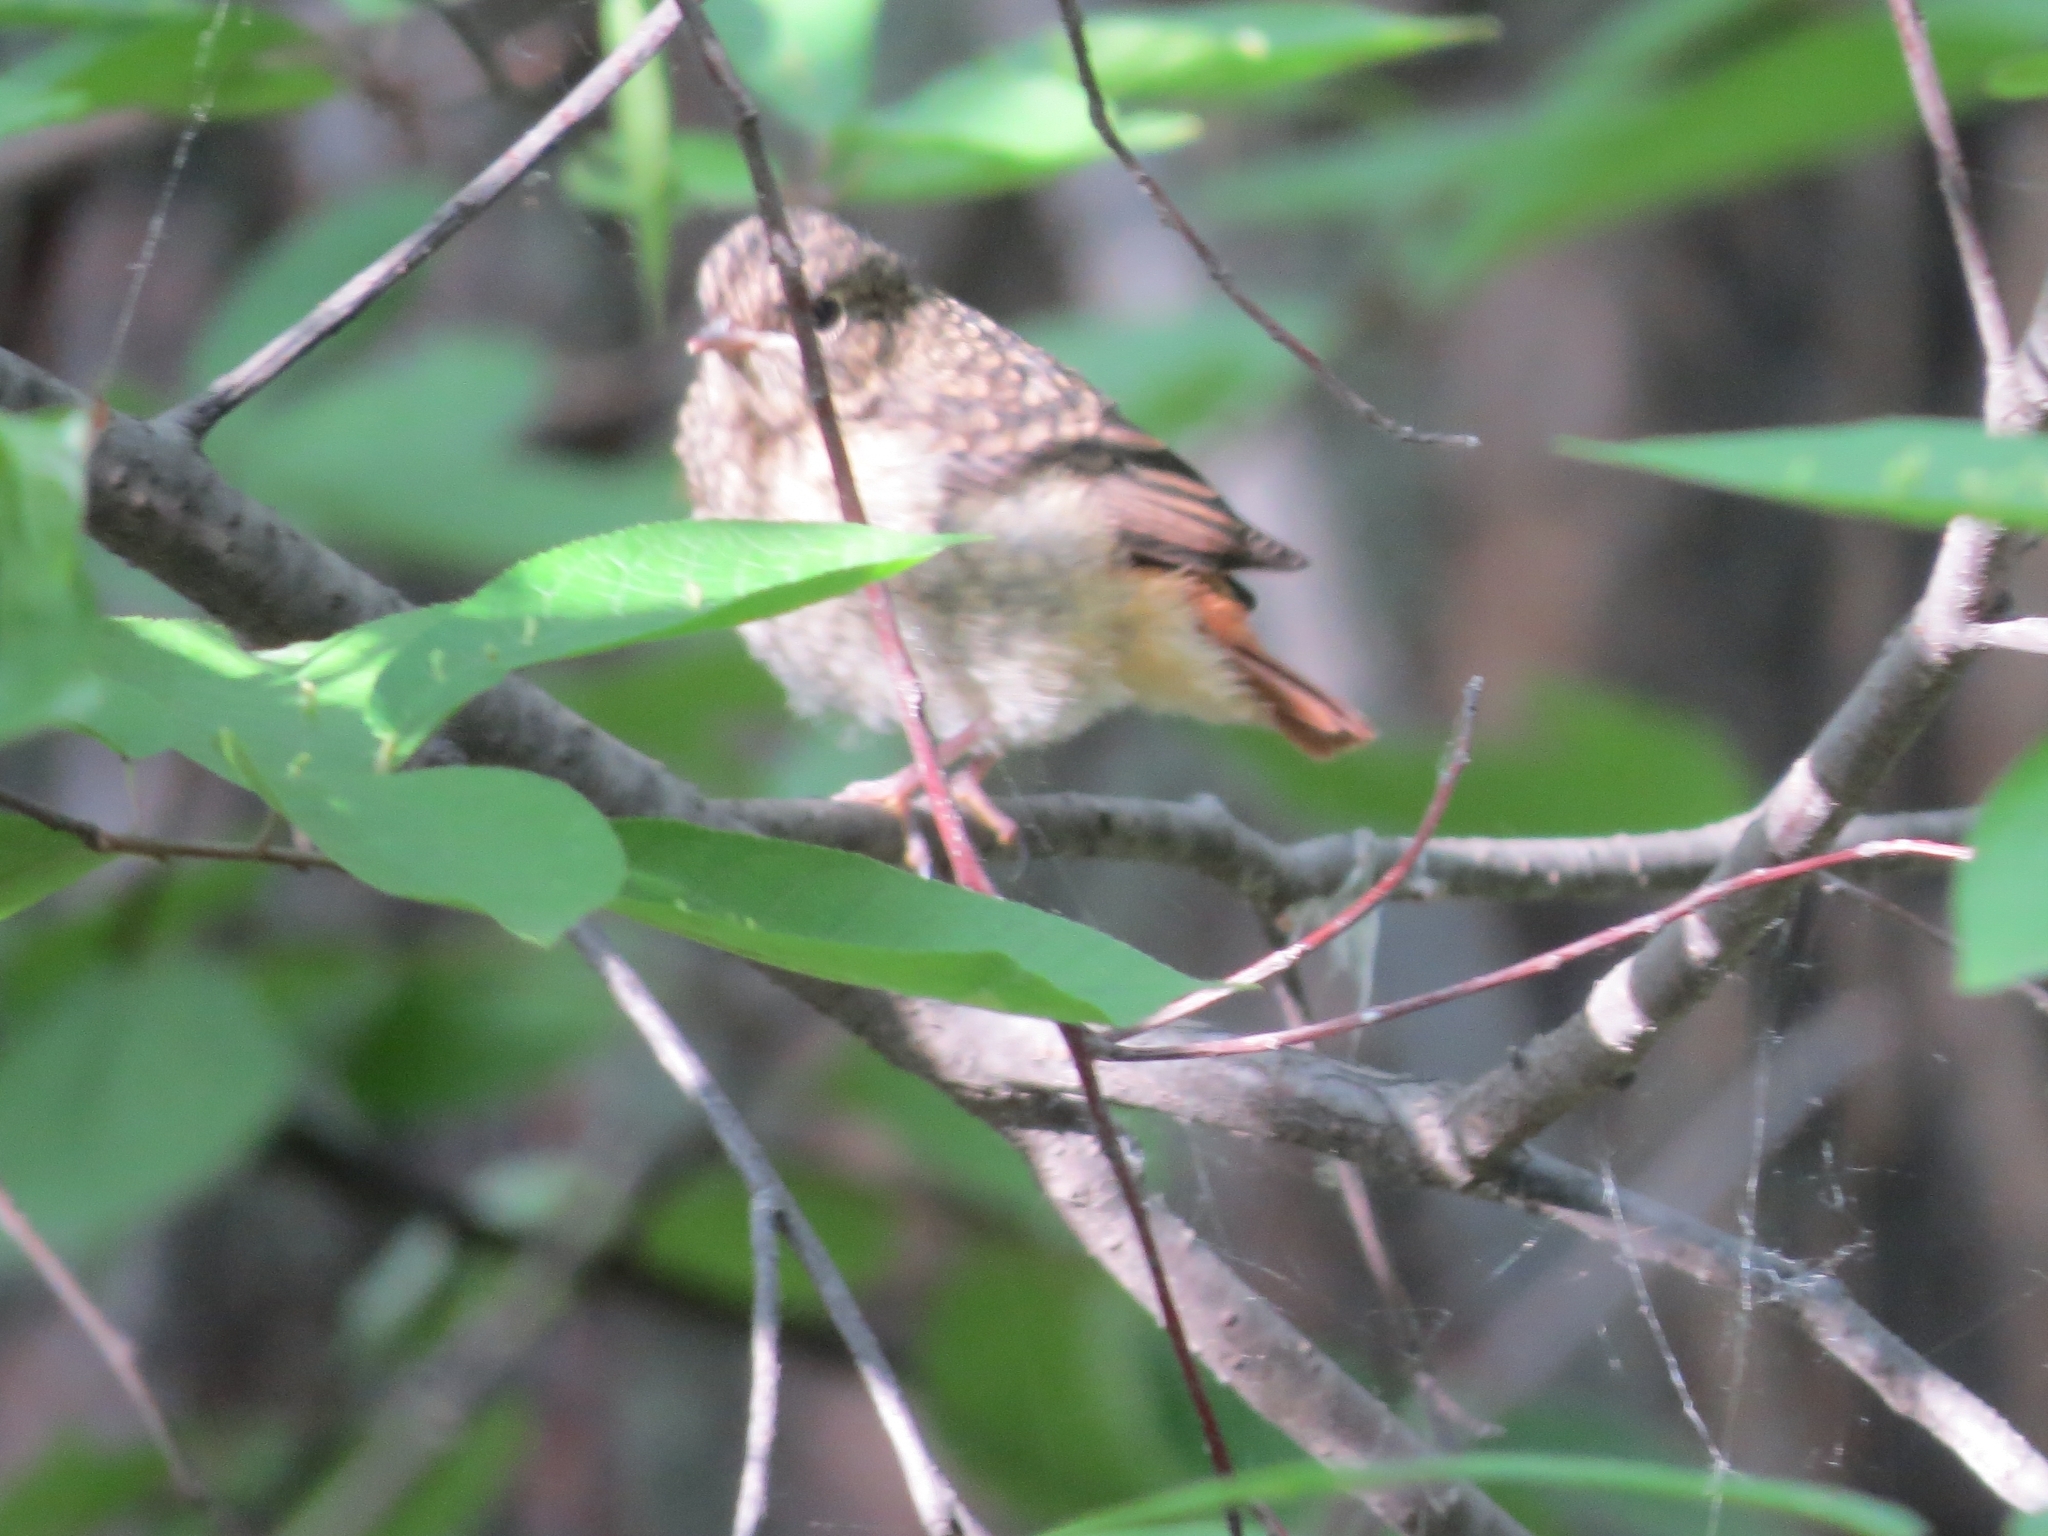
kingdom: Animalia
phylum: Chordata
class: Aves
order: Passeriformes
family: Muscicapidae
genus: Phoenicurus
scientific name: Phoenicurus phoenicurus
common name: Common redstart
